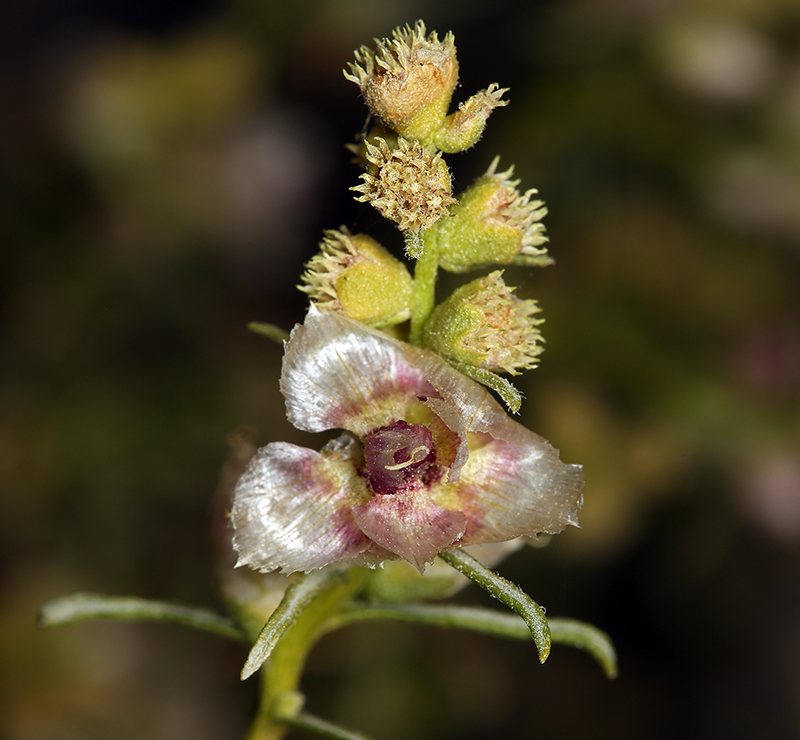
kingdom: Plantae
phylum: Tracheophyta
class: Magnoliopsida
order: Asterales
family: Asteraceae
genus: Ambrosia
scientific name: Ambrosia salsola
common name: Burrobrush
